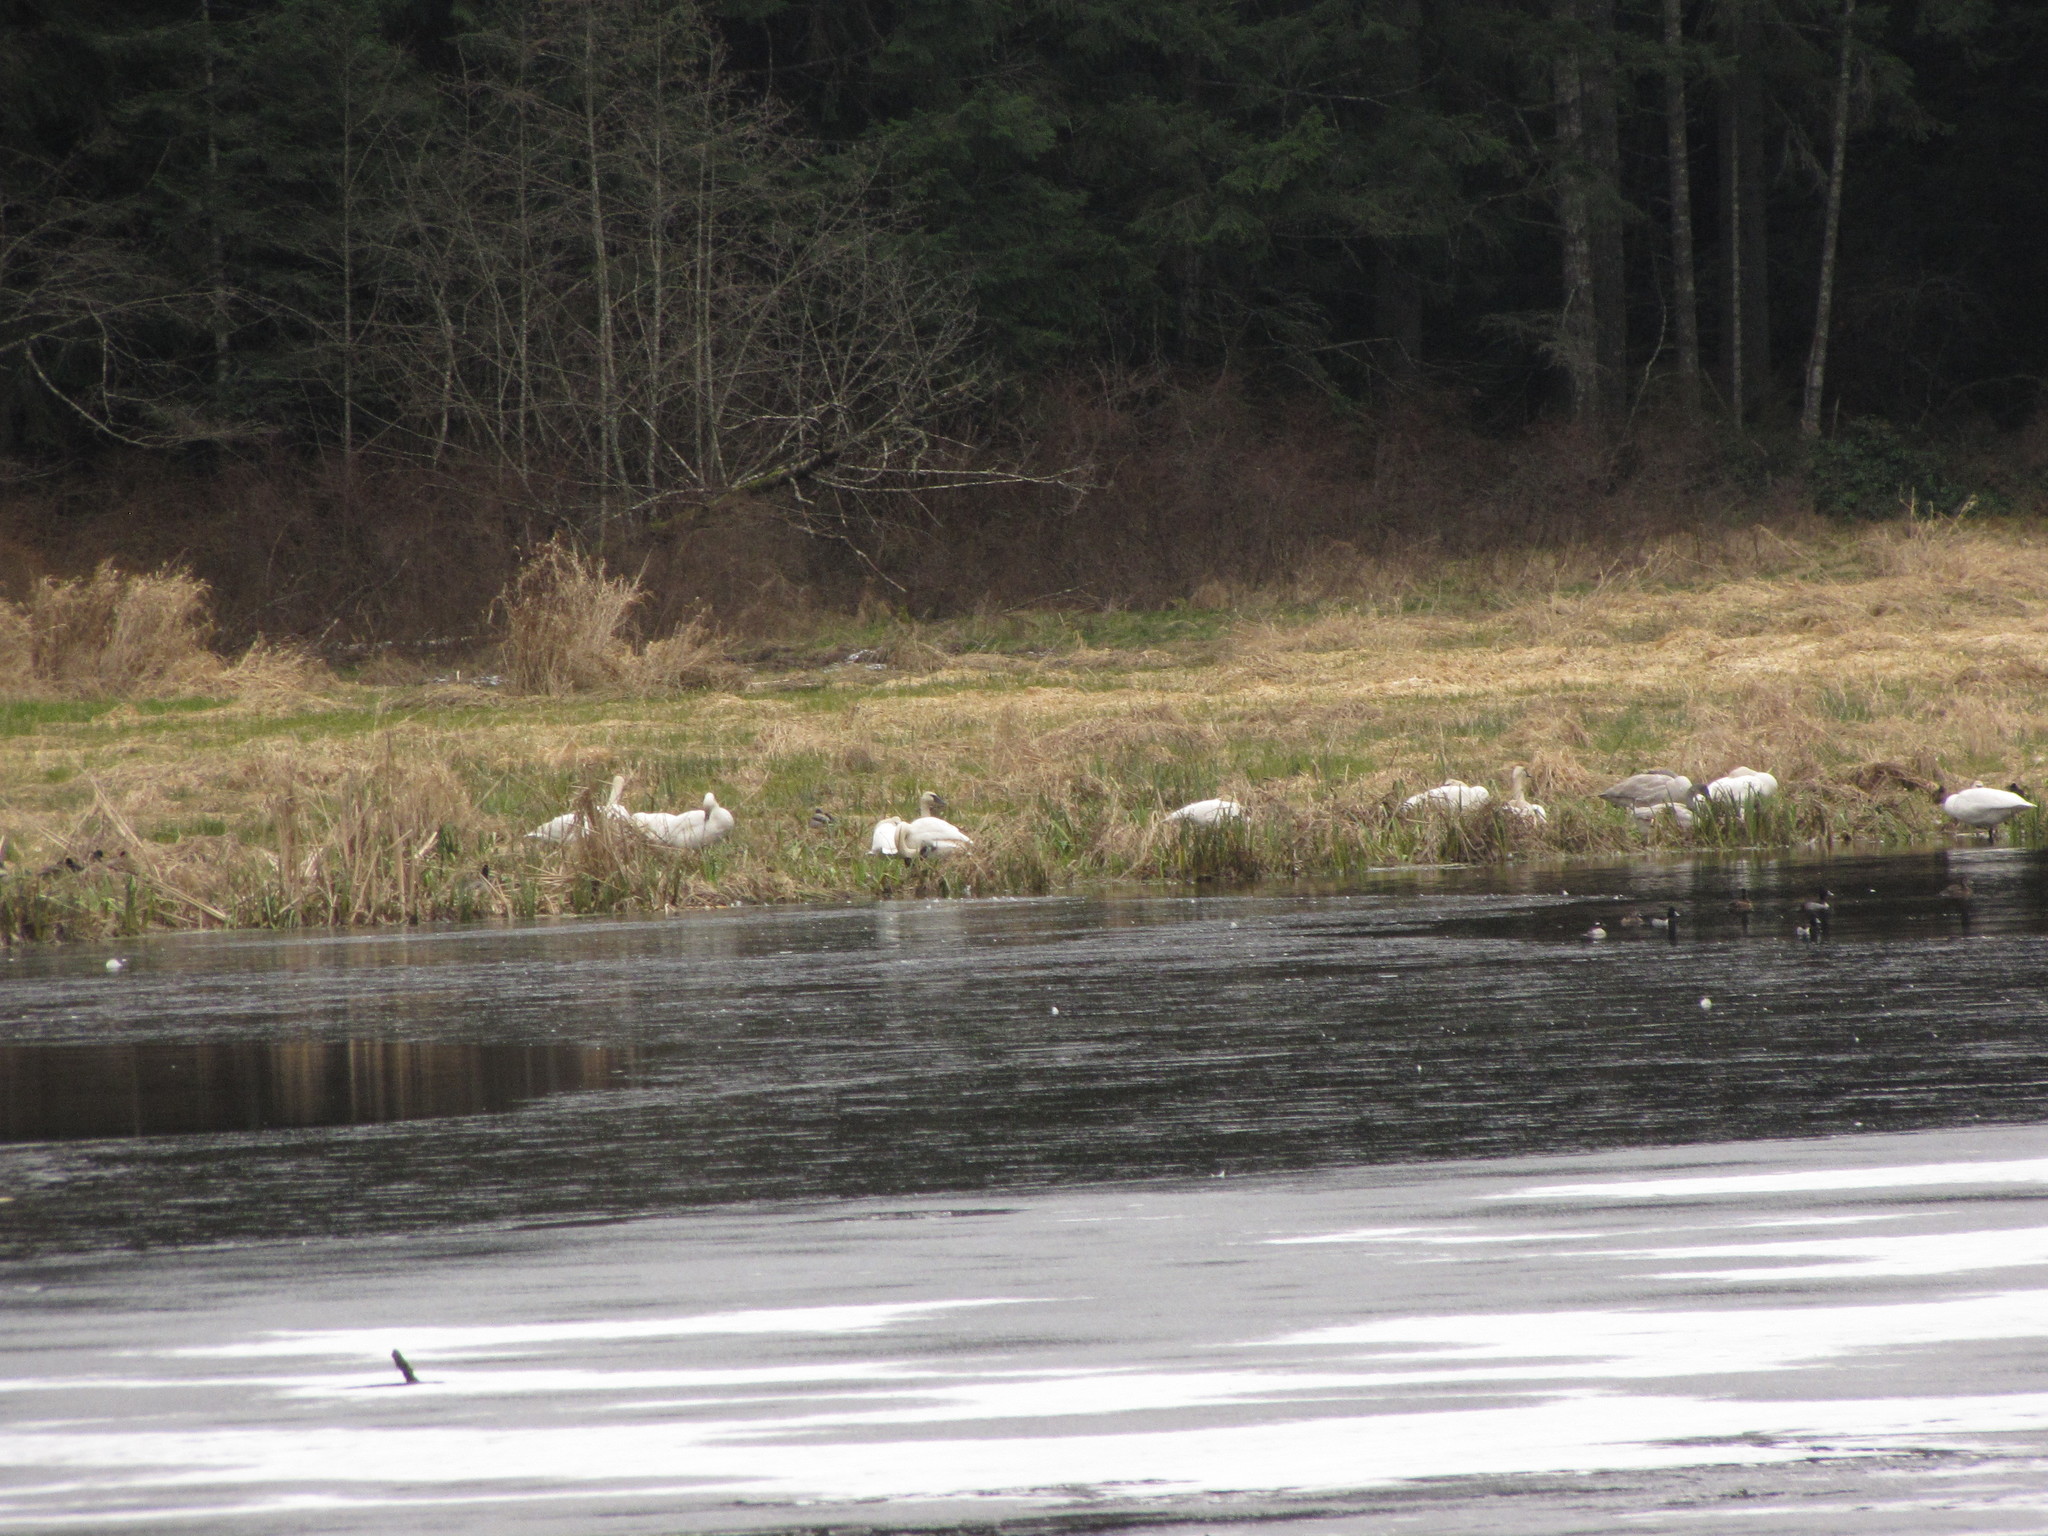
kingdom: Animalia
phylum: Chordata
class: Aves
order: Anseriformes
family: Anatidae
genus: Cygnus
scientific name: Cygnus buccinator
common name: Trumpeter swan
